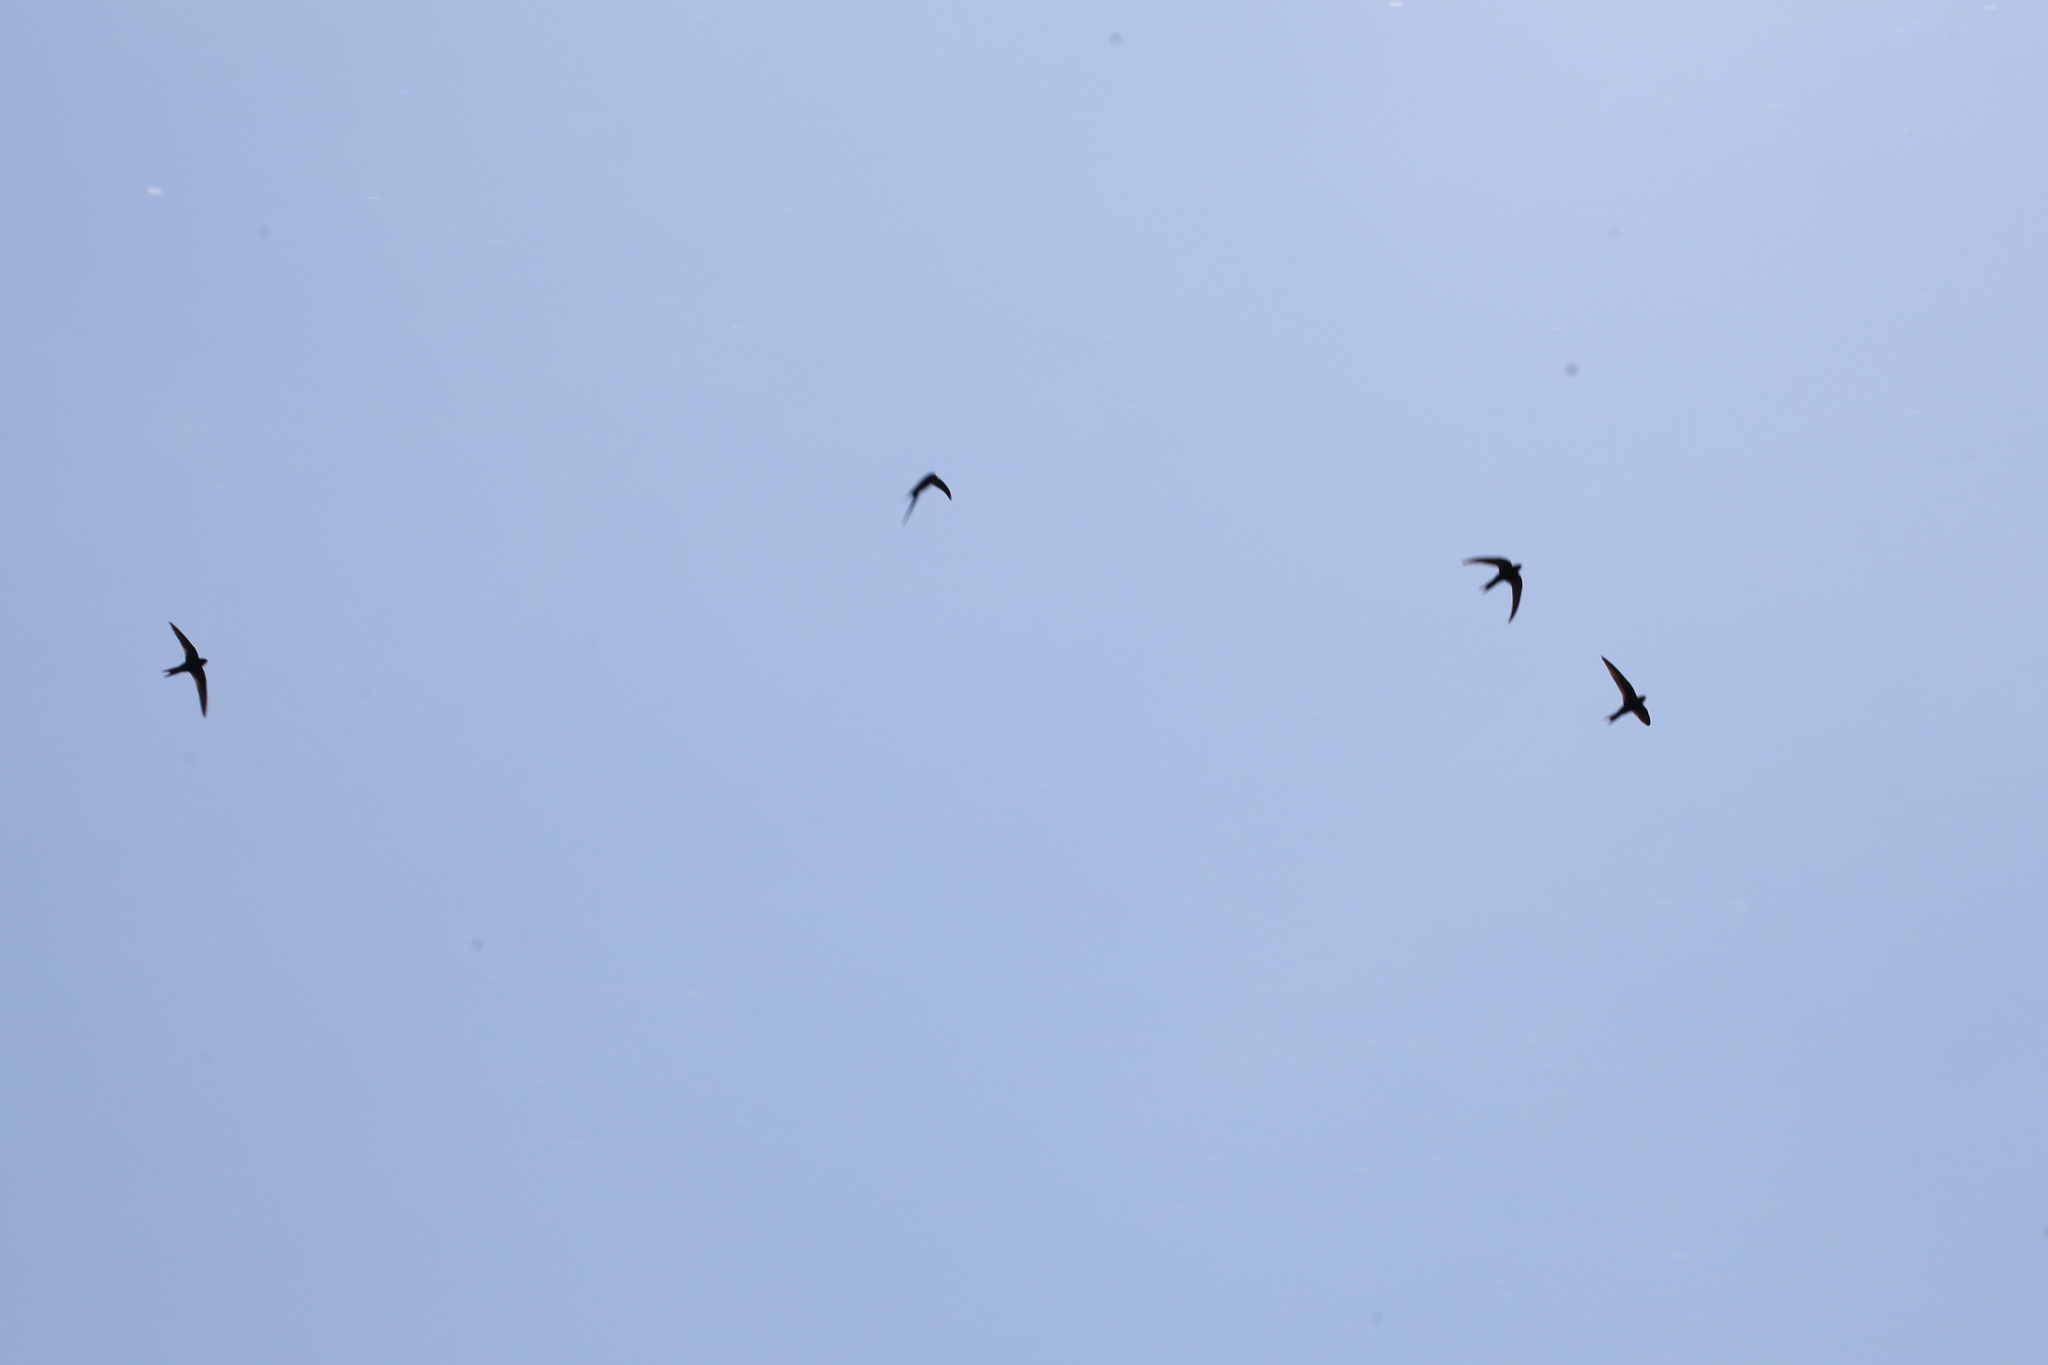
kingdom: Animalia
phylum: Chordata
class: Aves
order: Apodiformes
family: Apodidae
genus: Apus
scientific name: Apus apus
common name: Common swift
